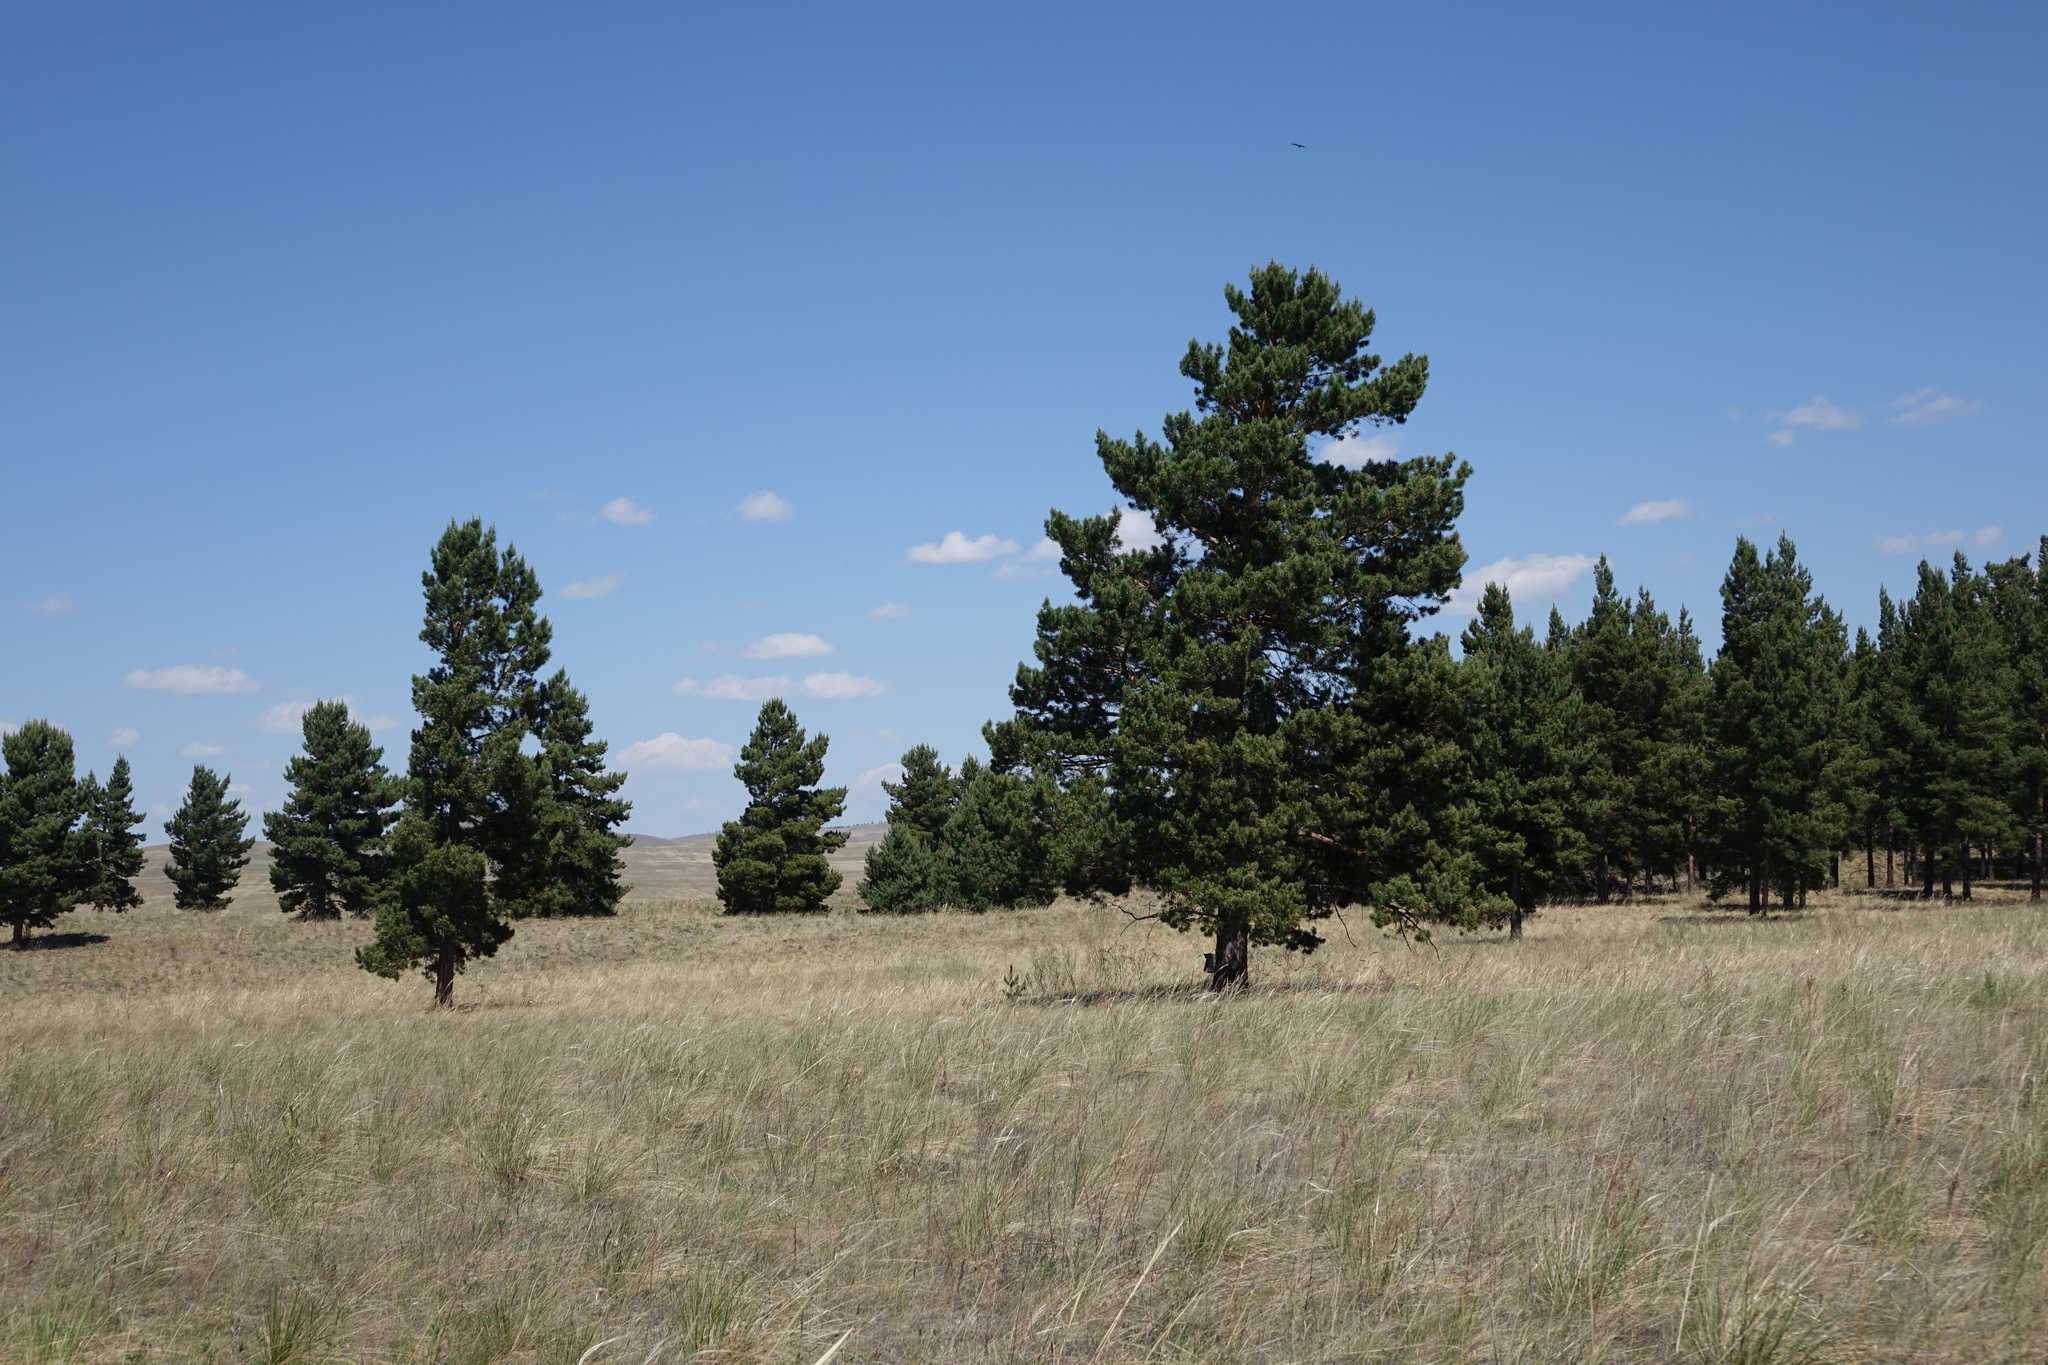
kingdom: Plantae
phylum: Tracheophyta
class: Pinopsida
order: Pinales
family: Pinaceae
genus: Pinus
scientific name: Pinus sylvestris
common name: Scots pine
